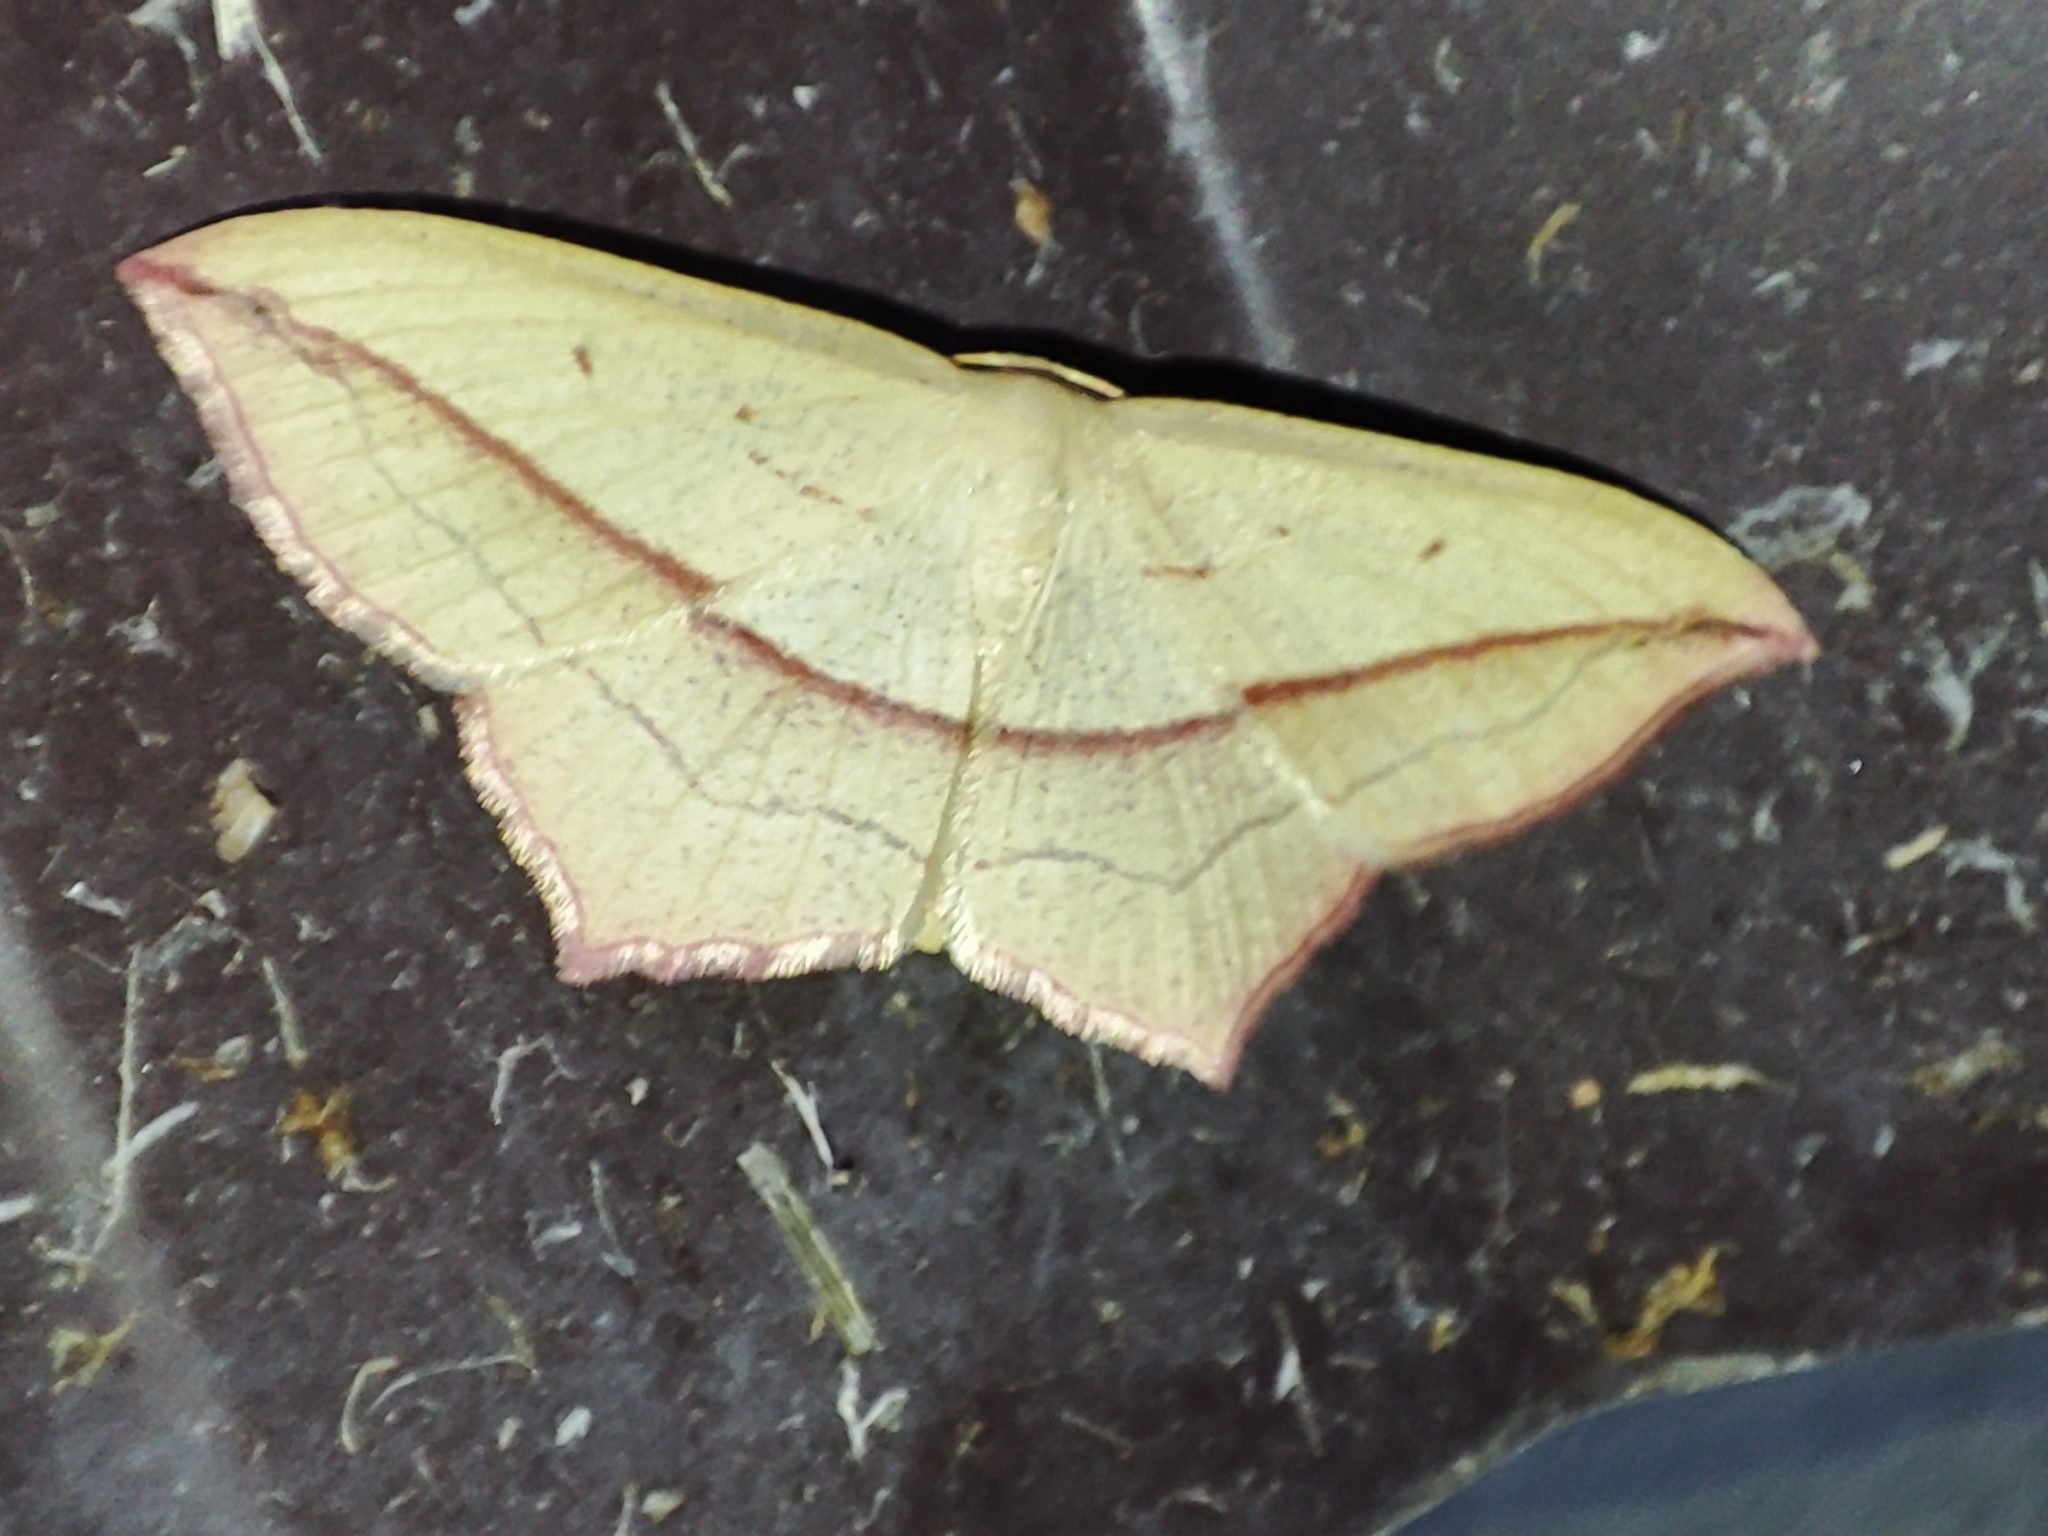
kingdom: Animalia
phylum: Arthropoda
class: Insecta
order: Lepidoptera
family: Geometridae
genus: Timandra
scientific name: Timandra comae
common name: Blood-vein
